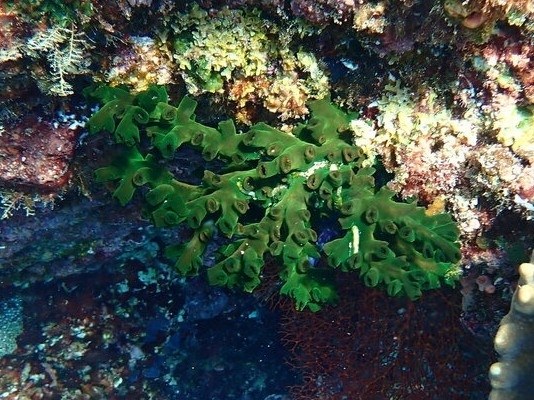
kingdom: Animalia
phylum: Cnidaria
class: Anthozoa
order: Scleractinia
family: Dendrophylliidae
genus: Tubastraea
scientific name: Tubastraea micranthus
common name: Black sun coral
